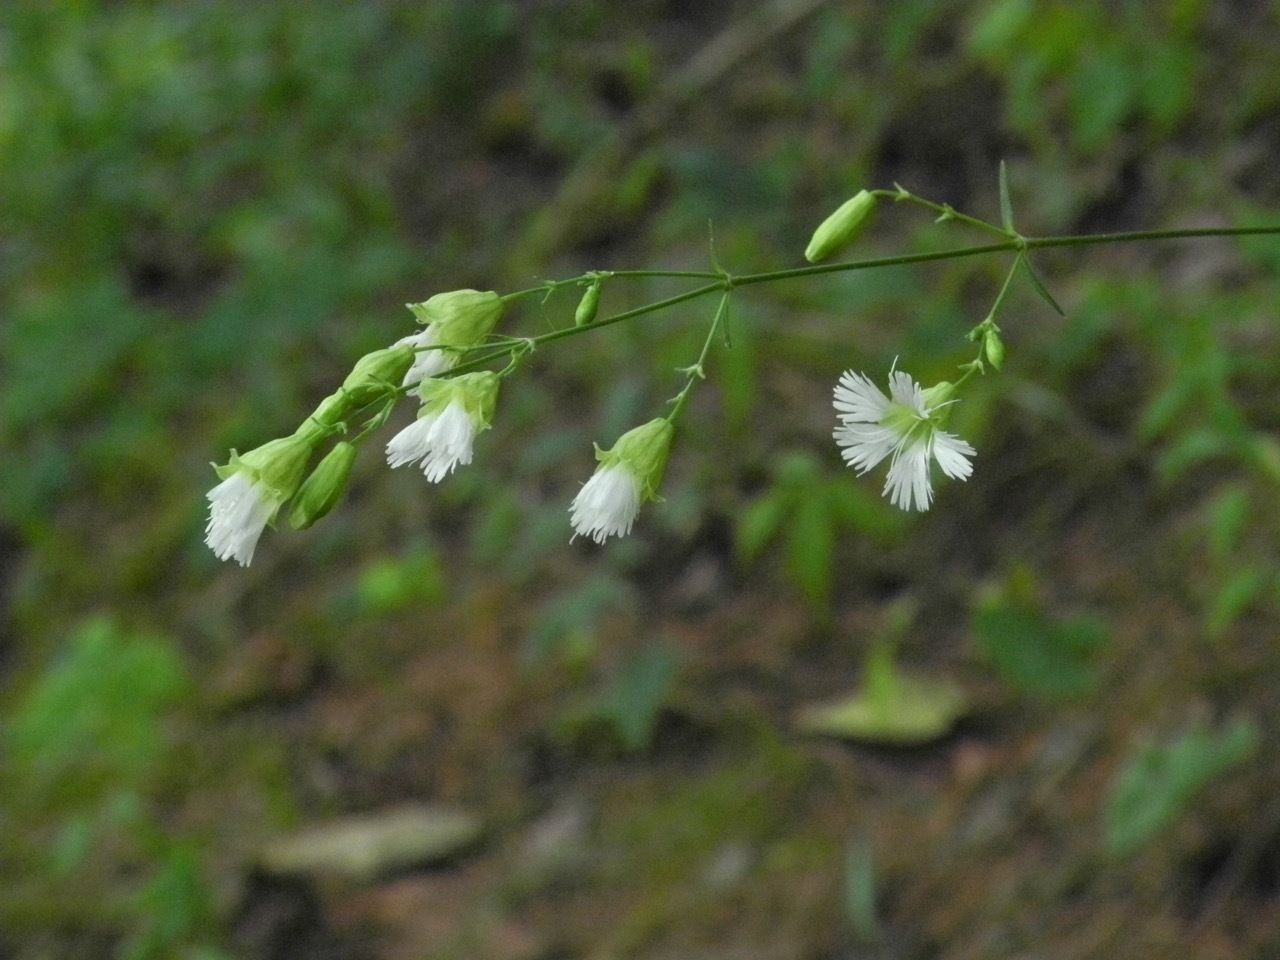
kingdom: Plantae
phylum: Tracheophyta
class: Magnoliopsida
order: Caryophyllales
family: Caryophyllaceae
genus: Silene
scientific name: Silene stellata
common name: Starry campion
